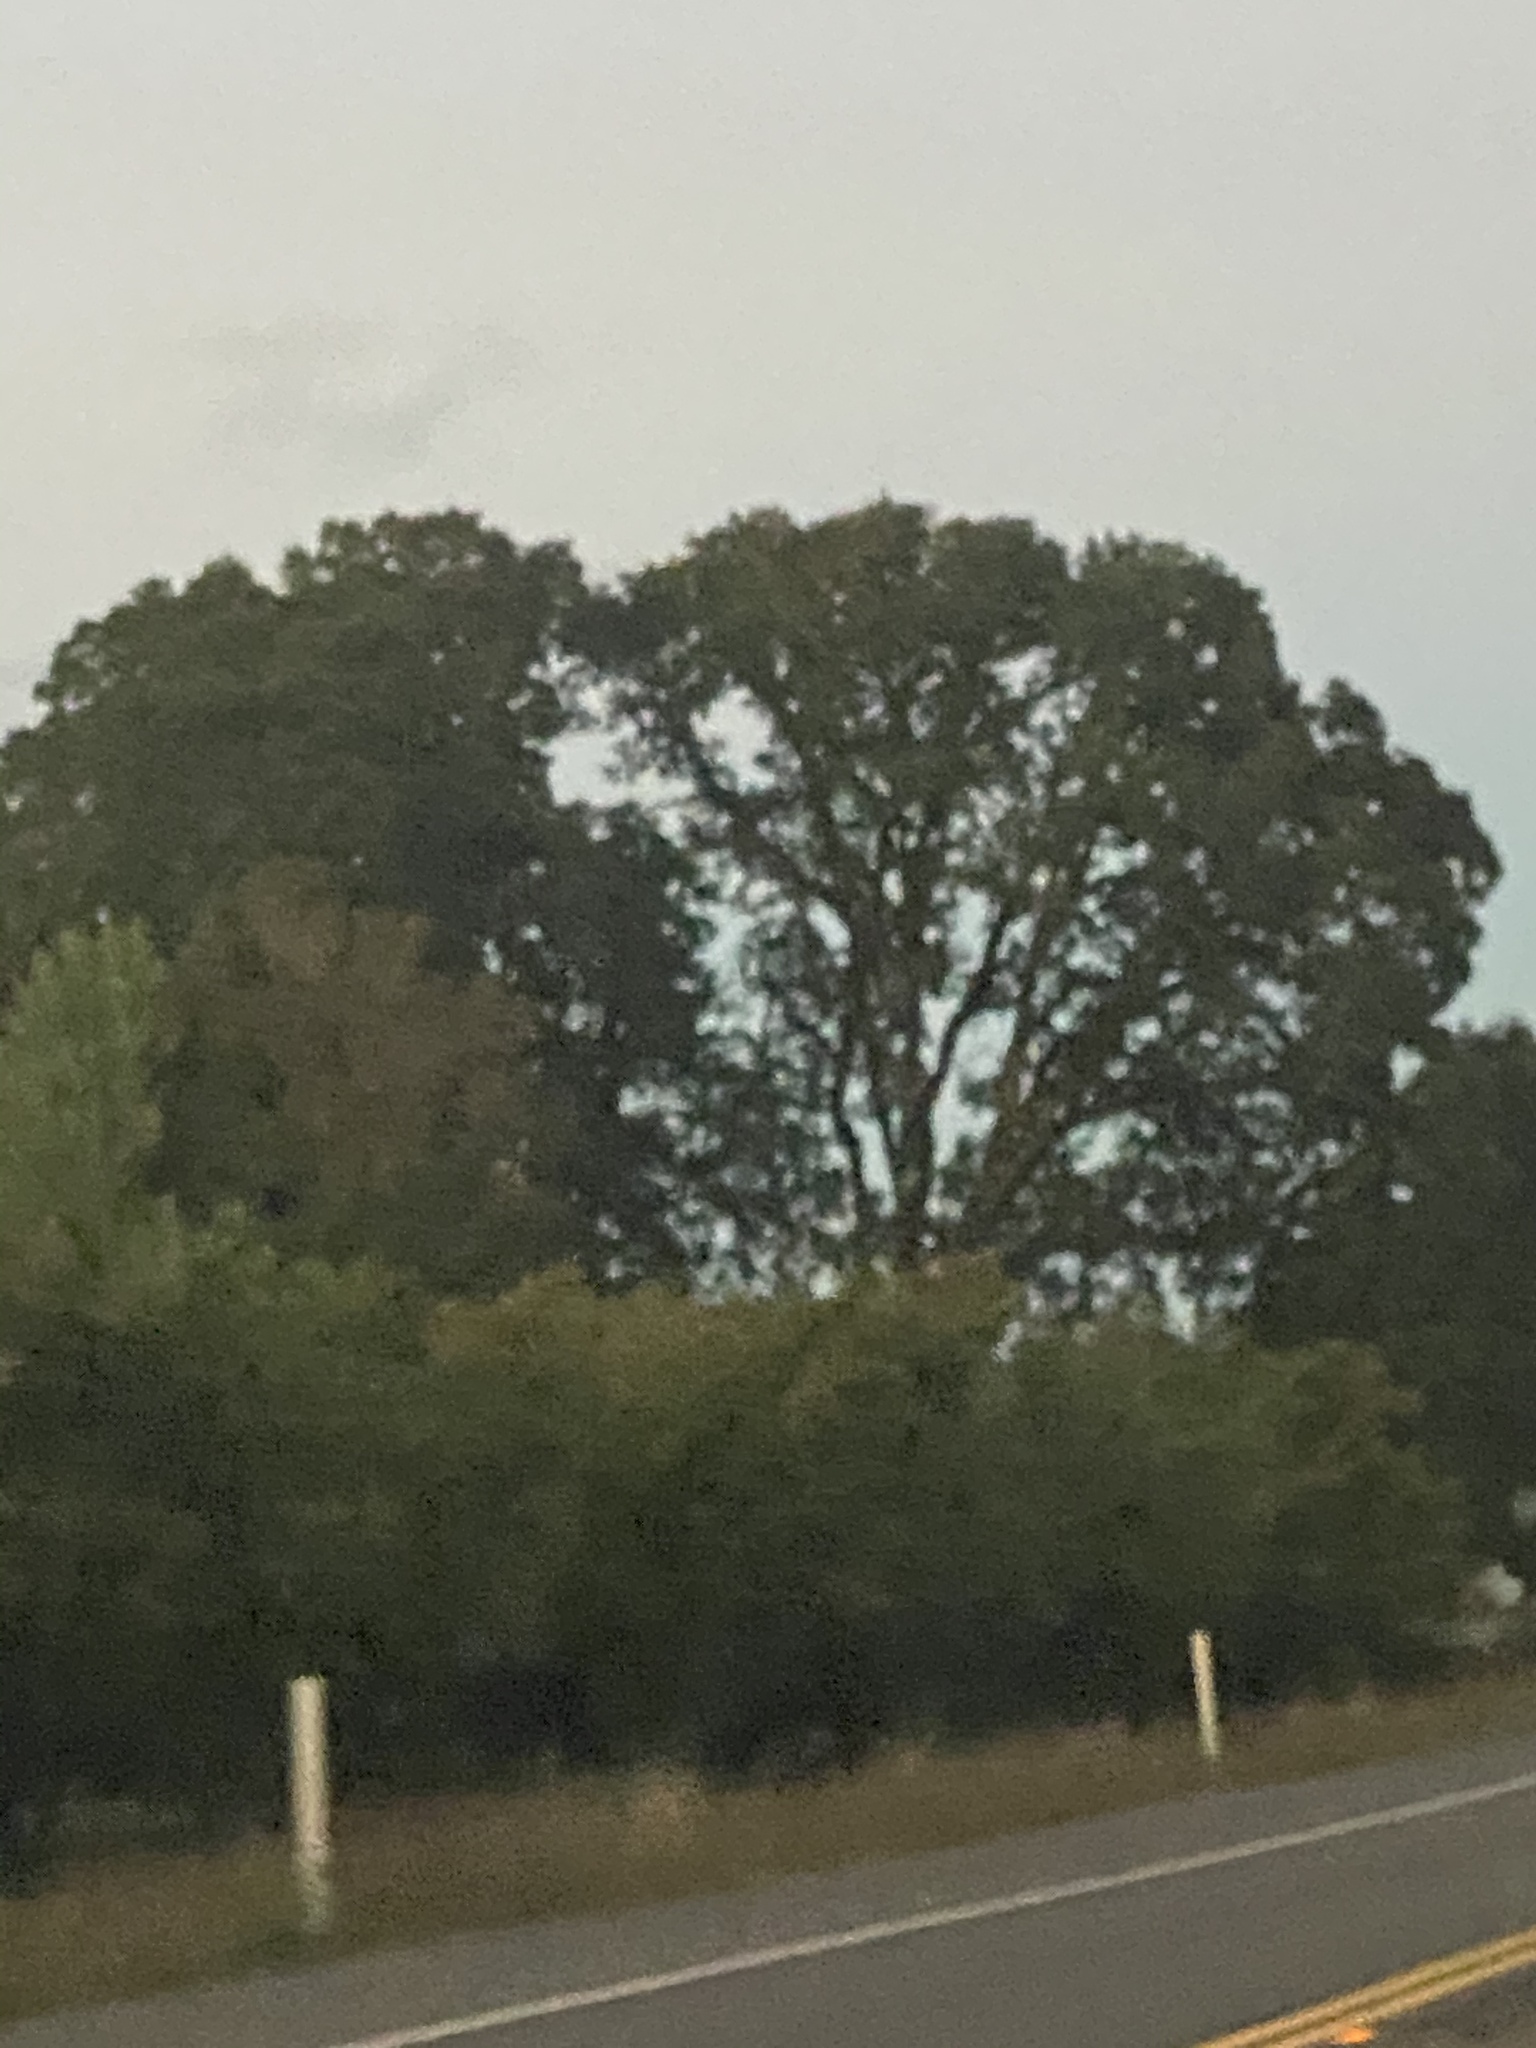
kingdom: Plantae
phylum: Tracheophyta
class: Magnoliopsida
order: Fagales
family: Fagaceae
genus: Quercus
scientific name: Quercus garryana
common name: Garry oak
